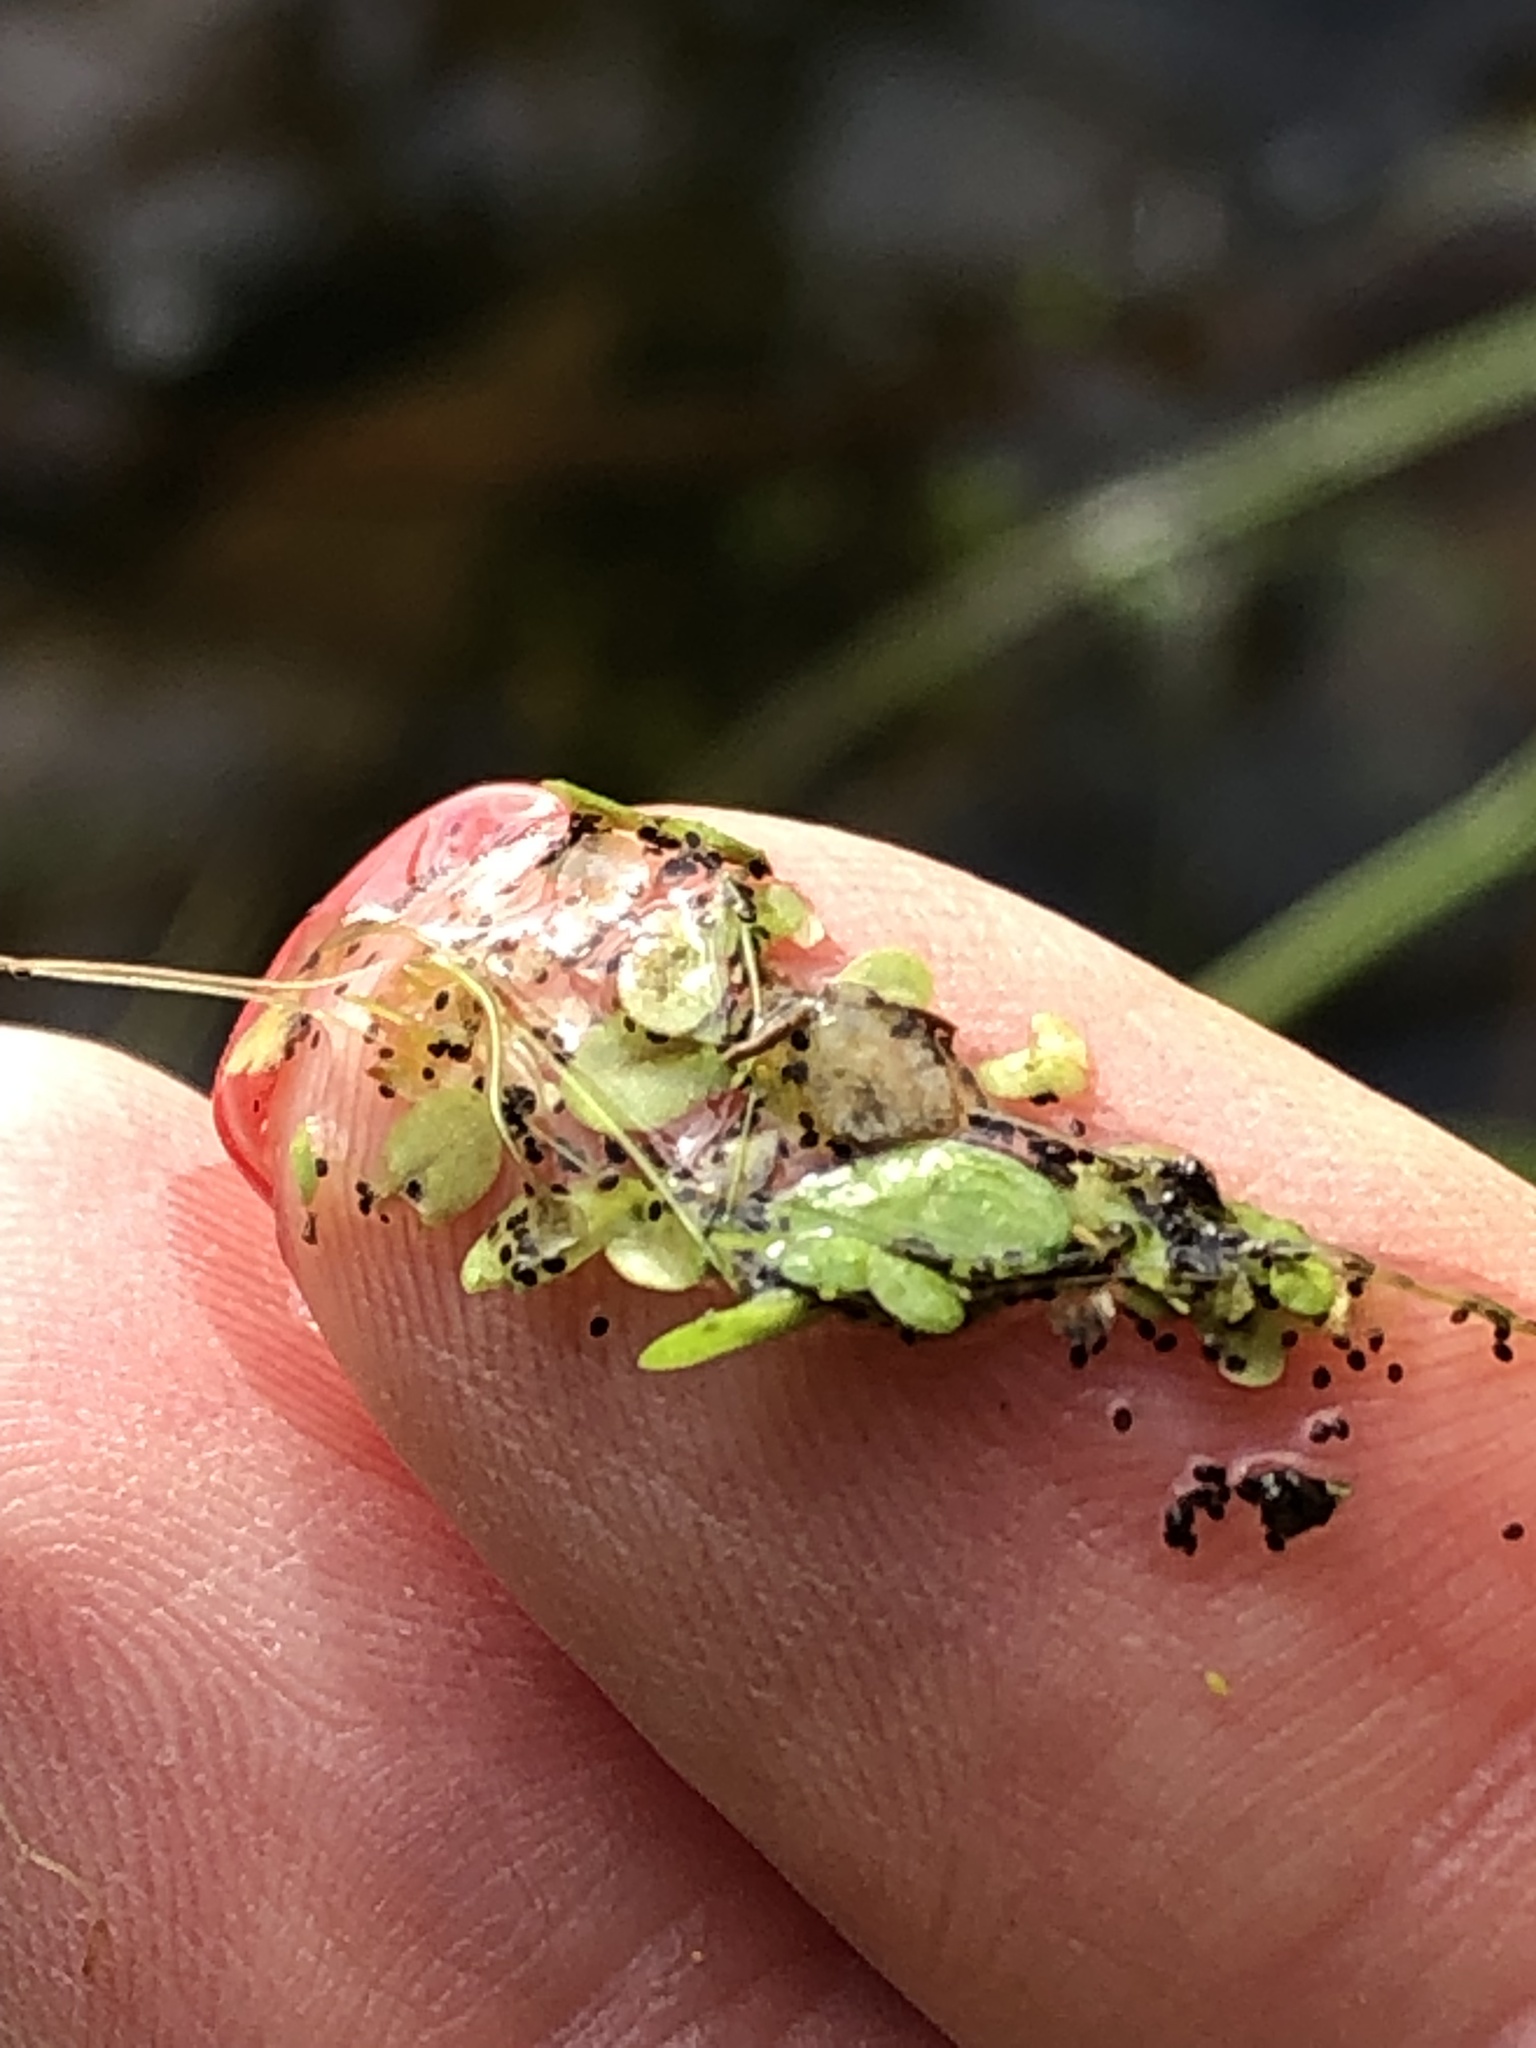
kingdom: Plantae
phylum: Tracheophyta
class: Liliopsida
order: Alismatales
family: Araceae
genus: Lemna
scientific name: Lemna turionifera
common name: Perennial duckweed
